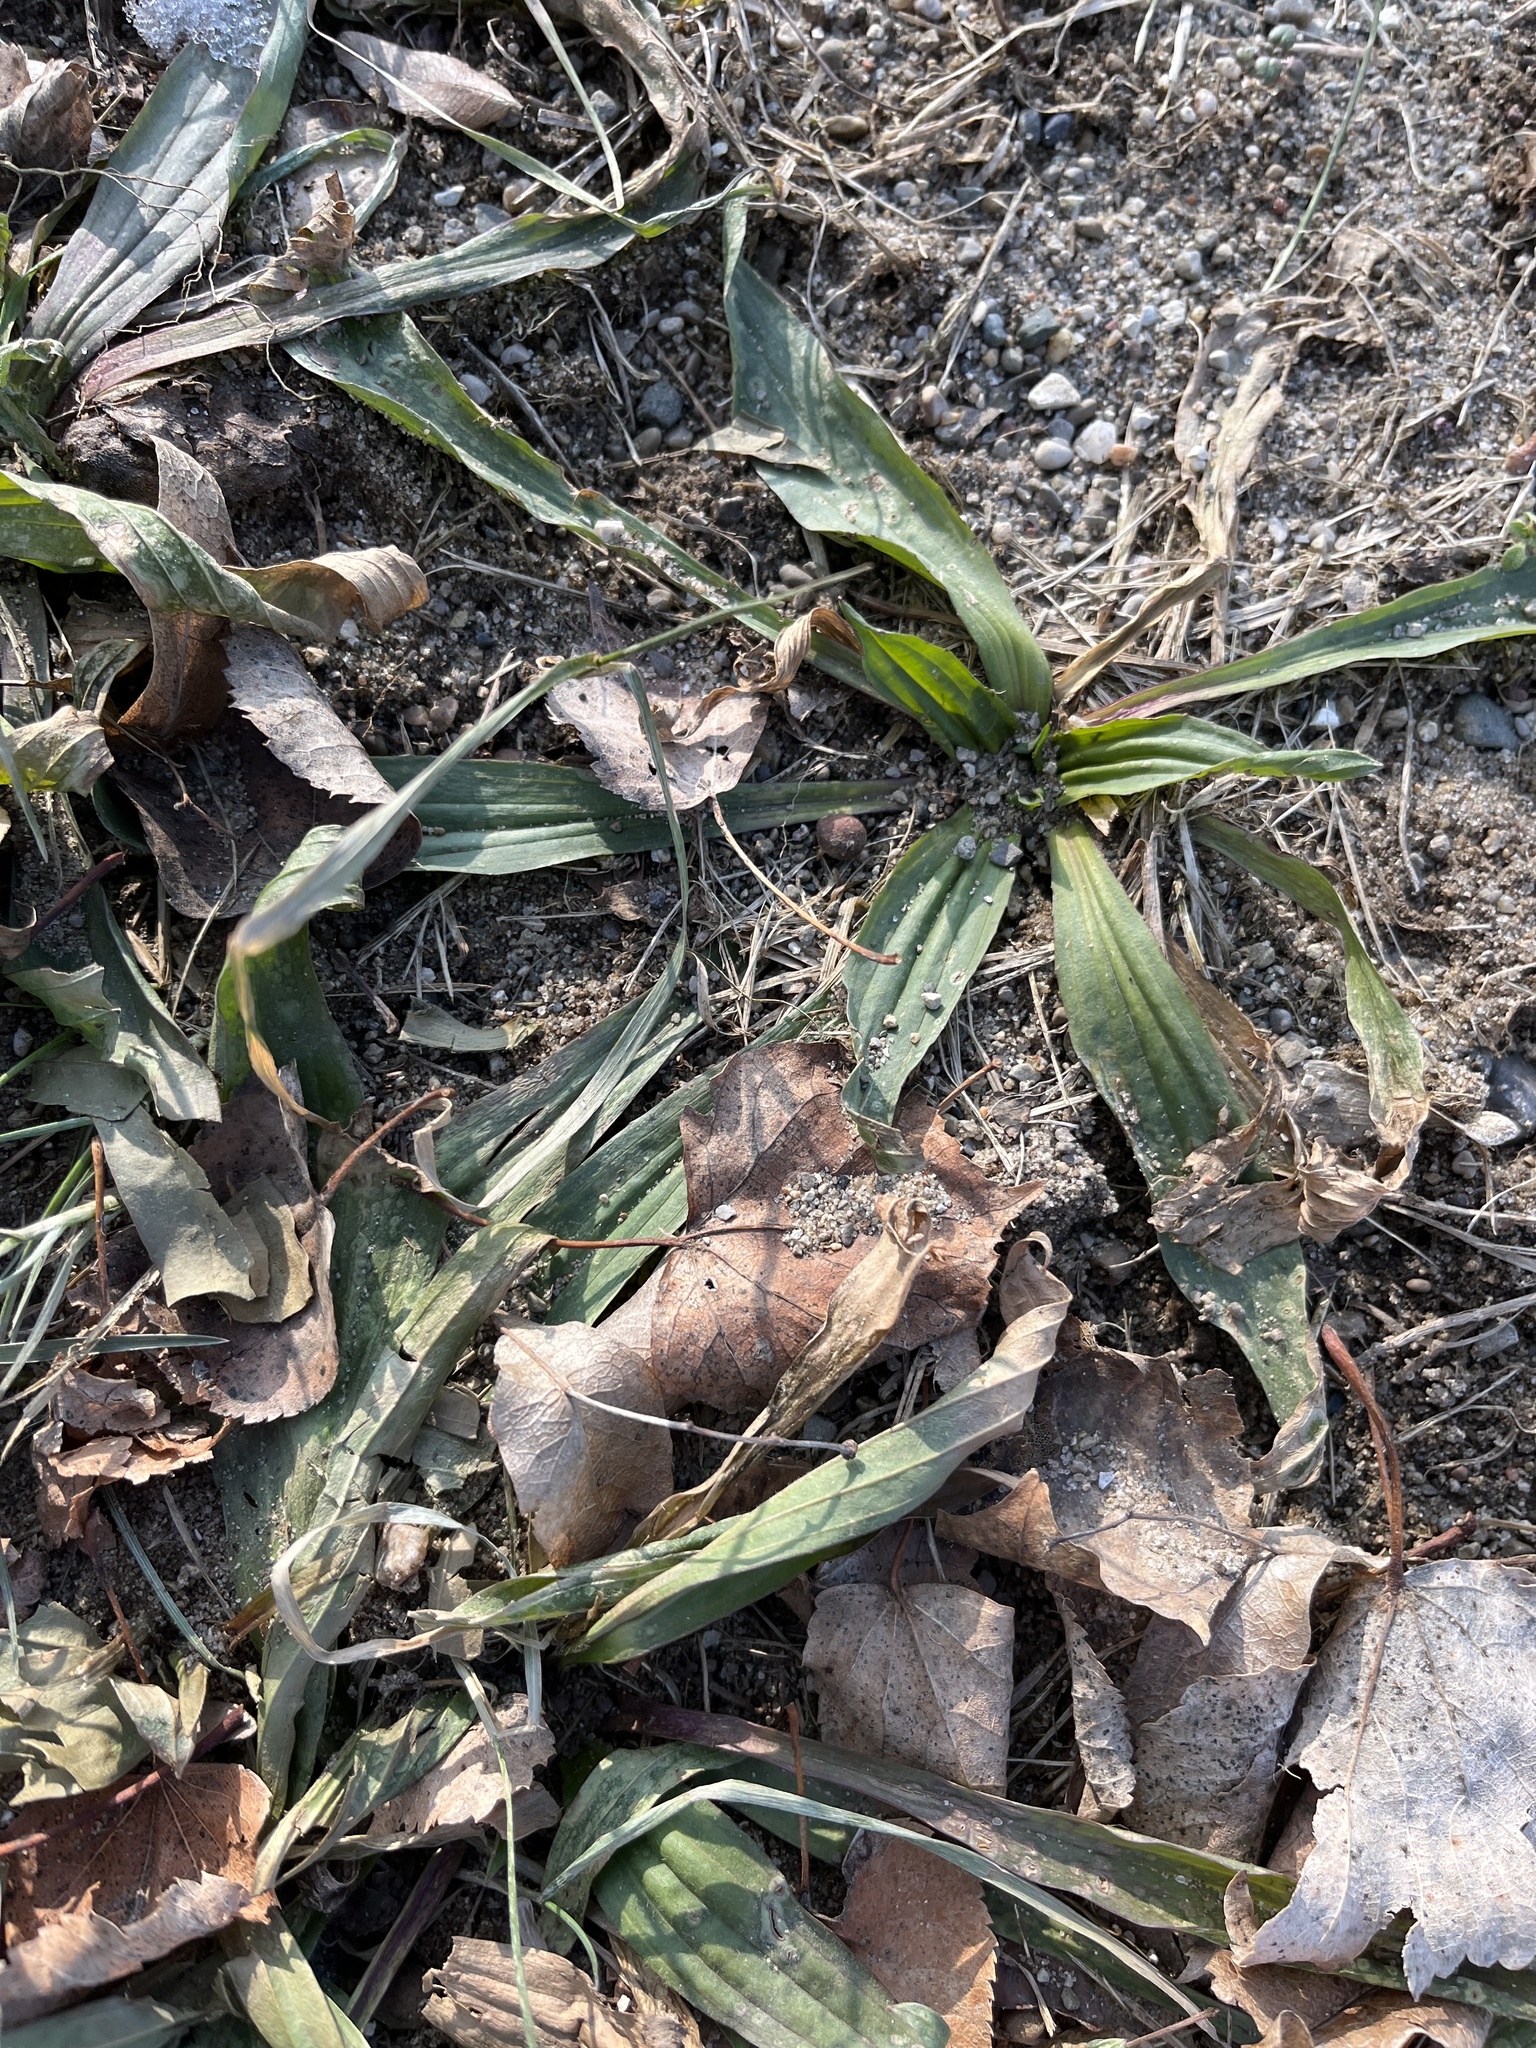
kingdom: Plantae
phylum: Tracheophyta
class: Magnoliopsida
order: Lamiales
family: Plantaginaceae
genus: Plantago
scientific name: Plantago lanceolata
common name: Ribwort plantain
